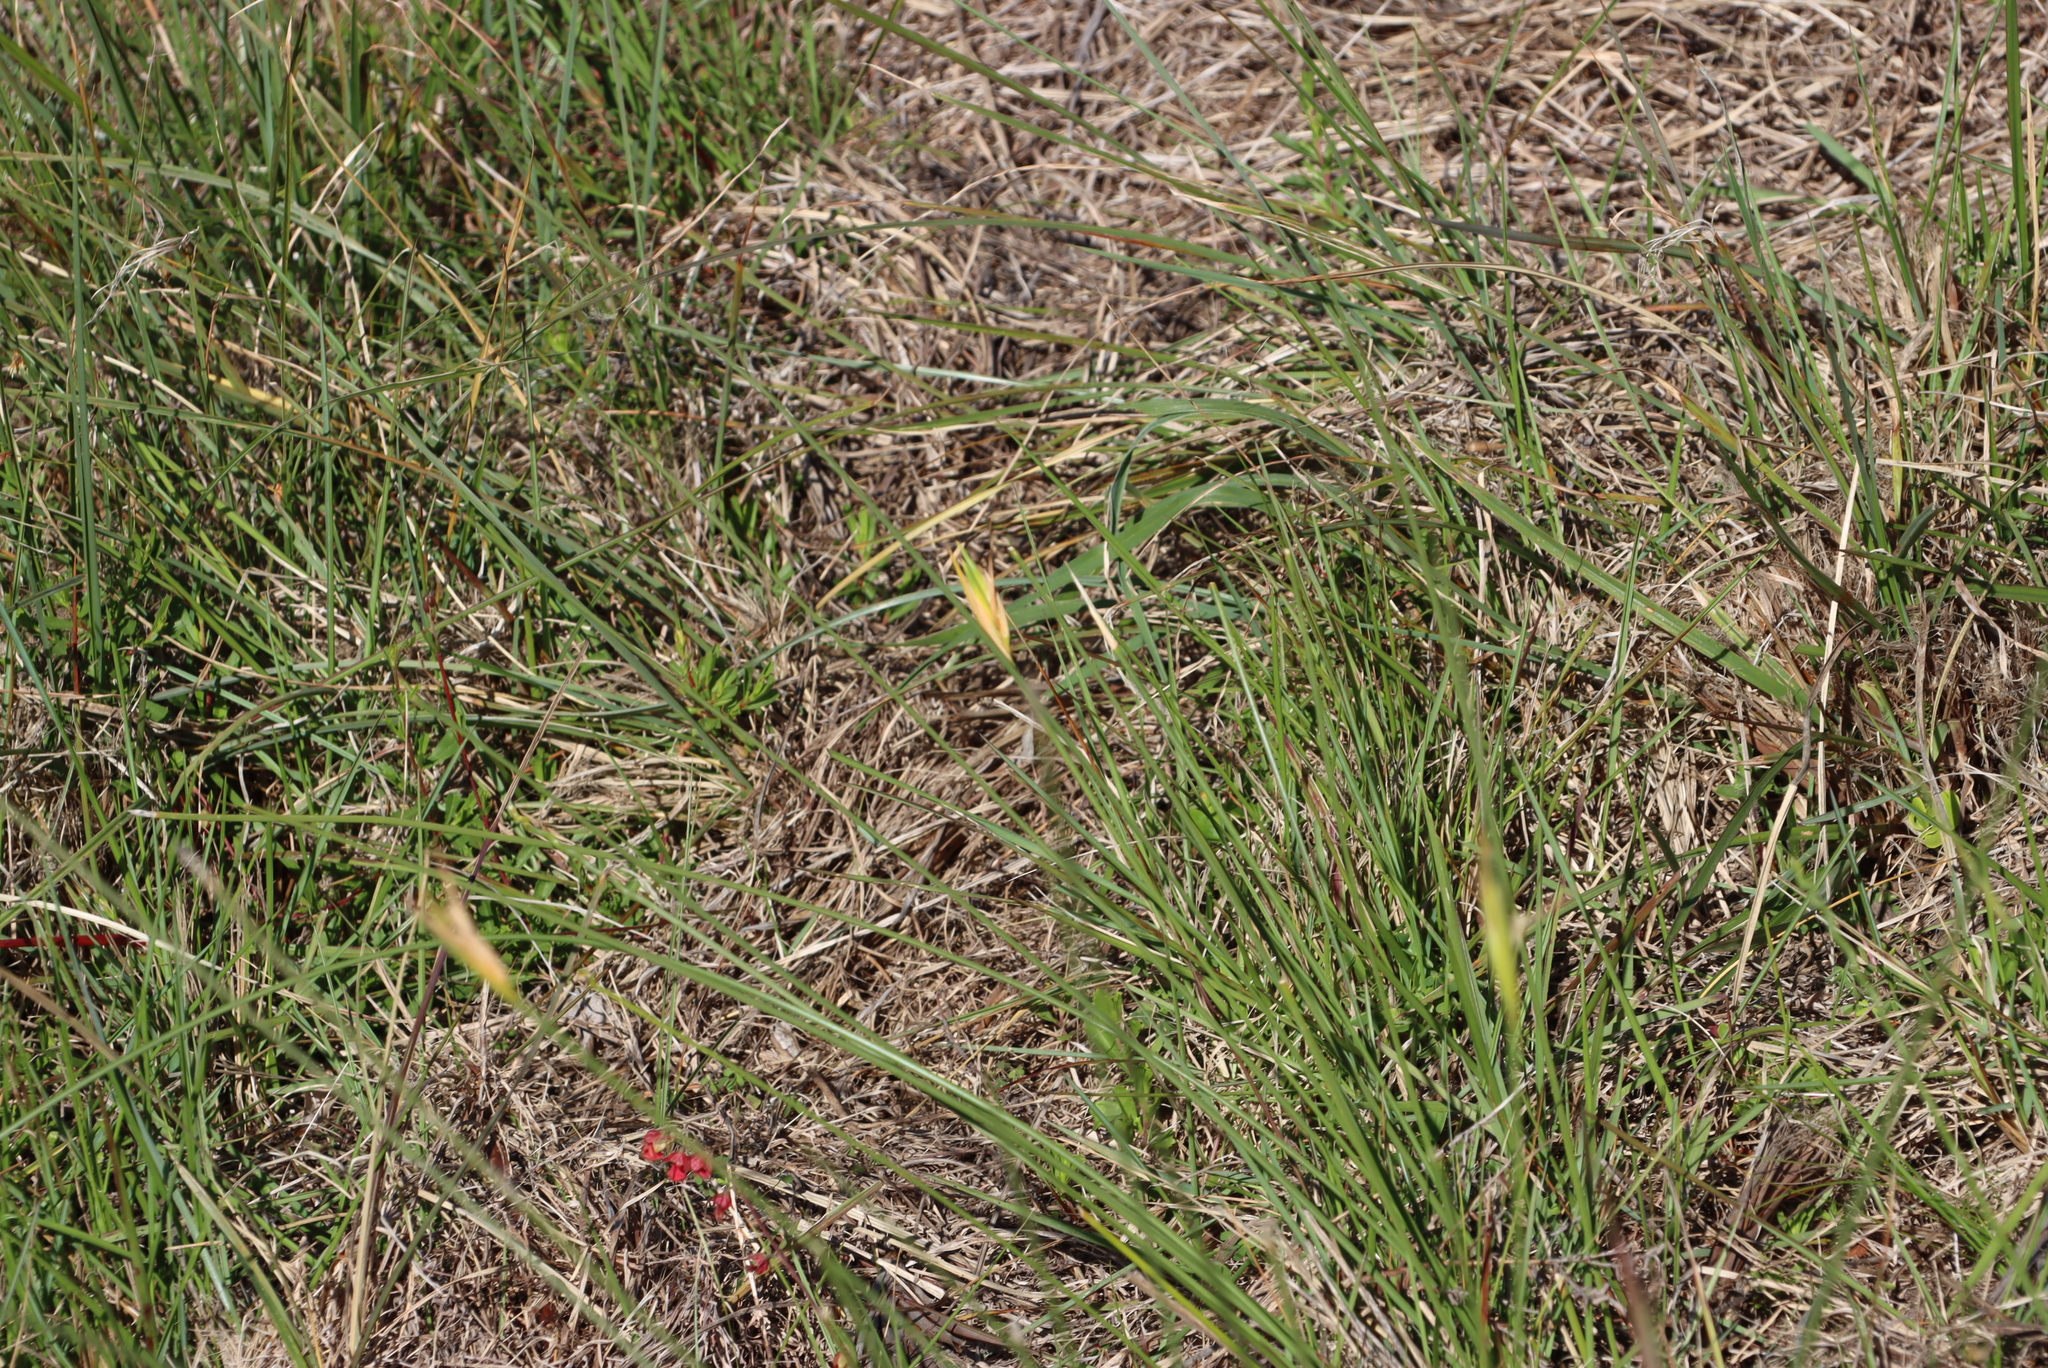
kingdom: Plantae
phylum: Tracheophyta
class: Liliopsida
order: Asparagales
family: Iridaceae
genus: Bobartia
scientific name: Bobartia aphylla
